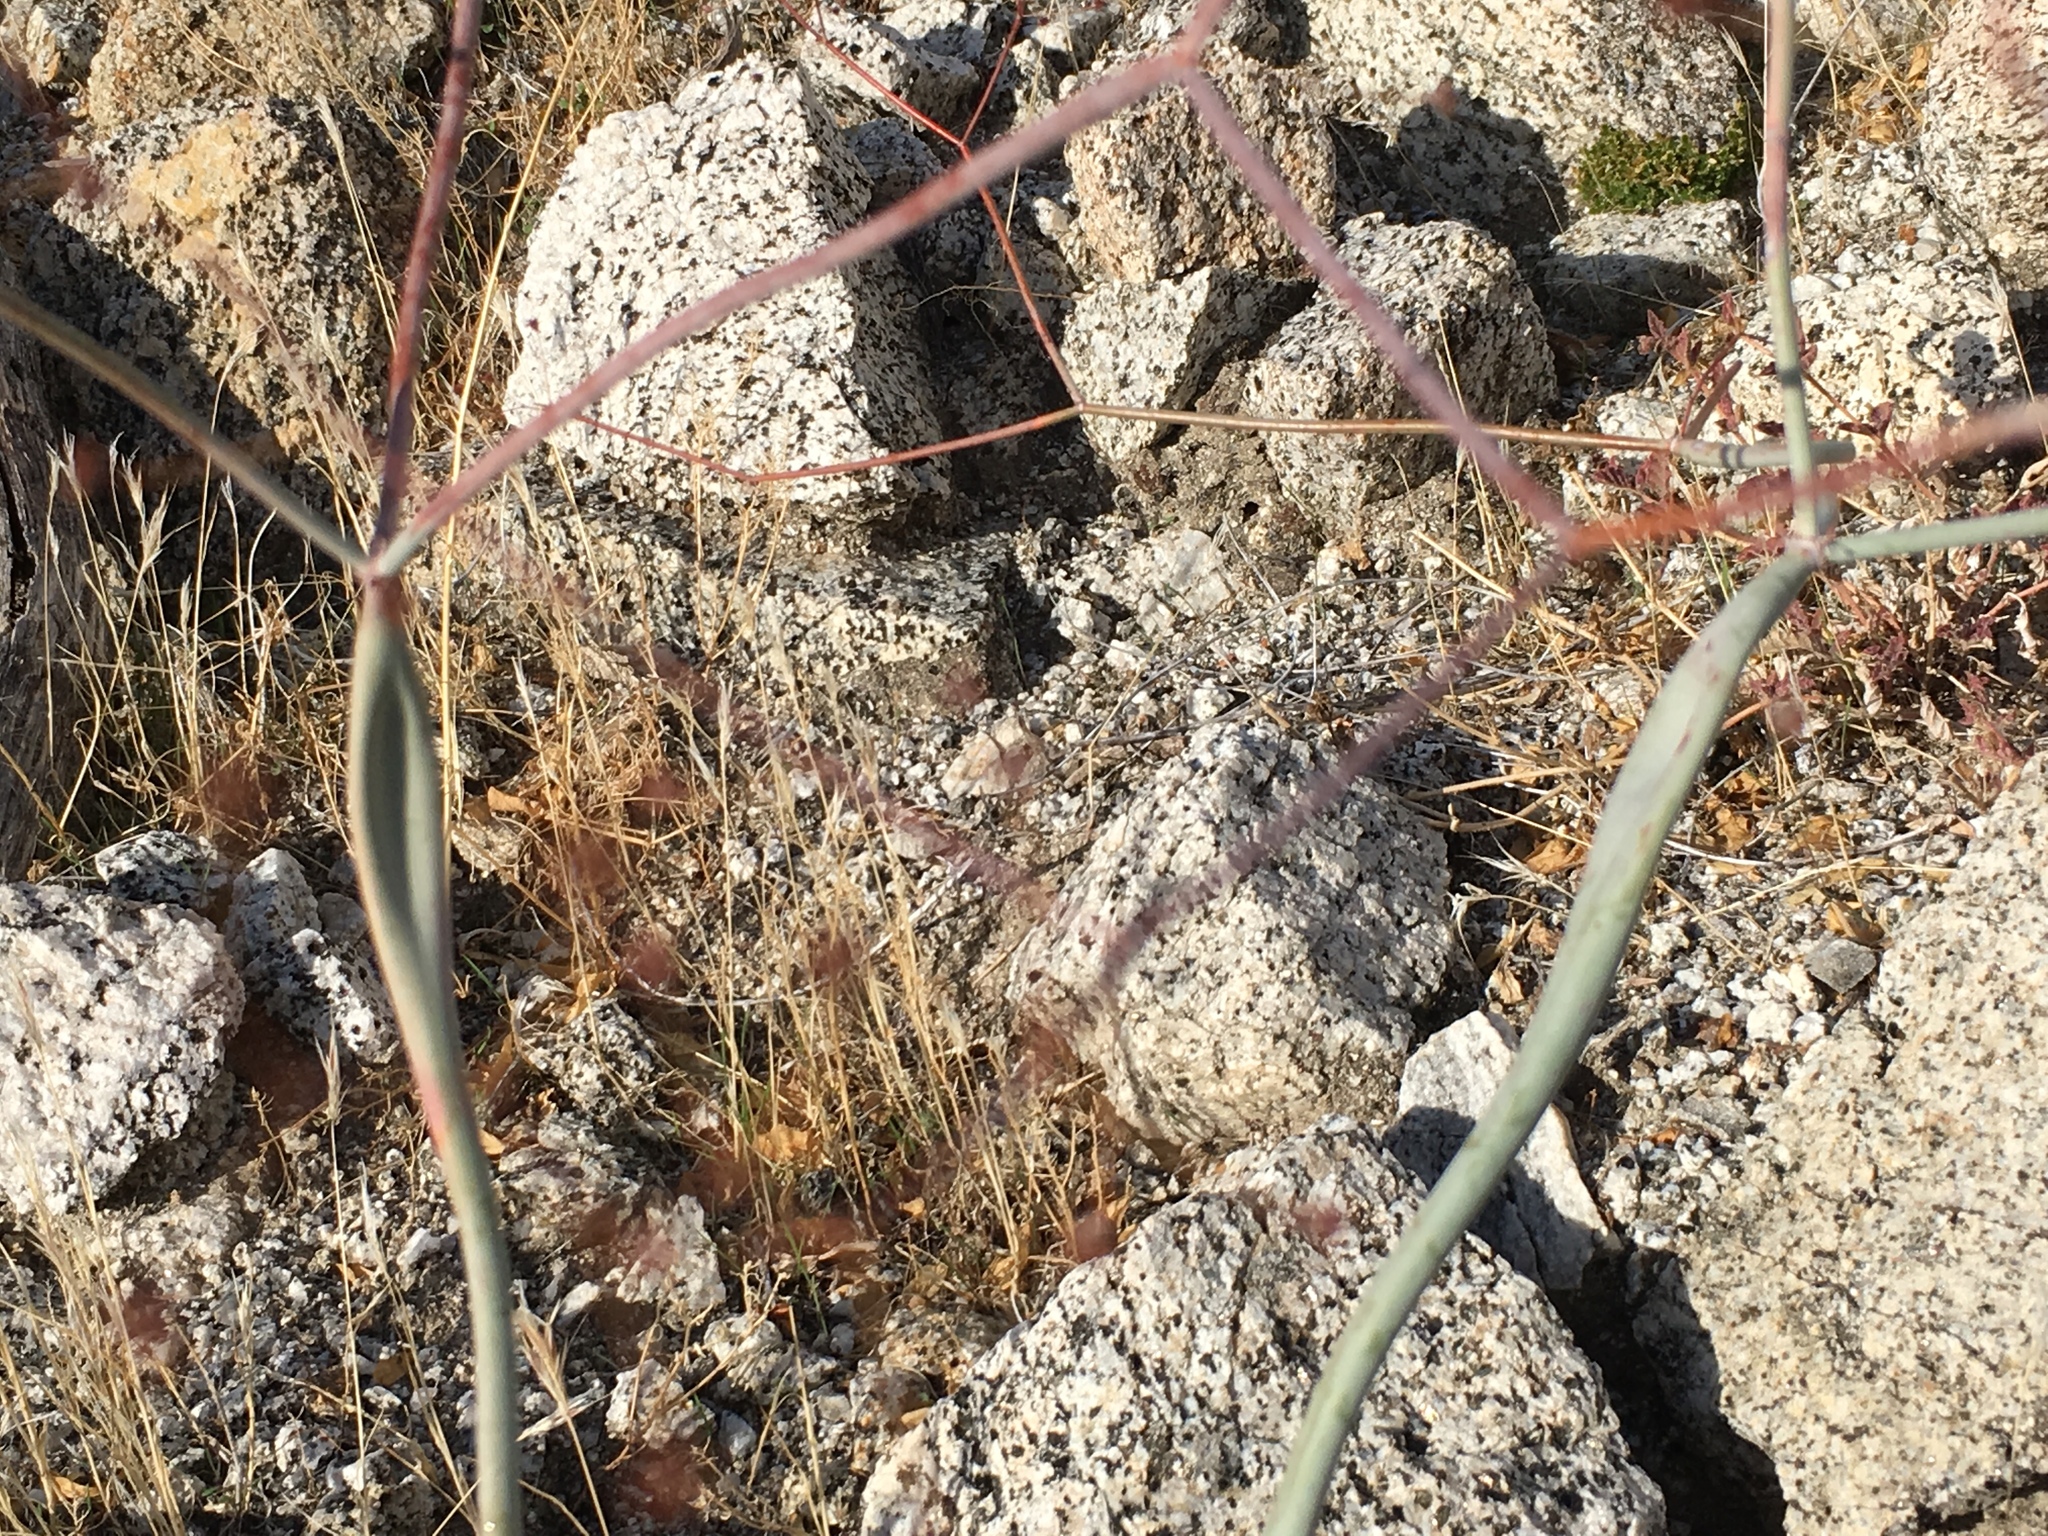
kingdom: Plantae
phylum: Tracheophyta
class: Magnoliopsida
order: Caryophyllales
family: Polygonaceae
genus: Eriogonum
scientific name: Eriogonum inflatum
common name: Desert trumpet
